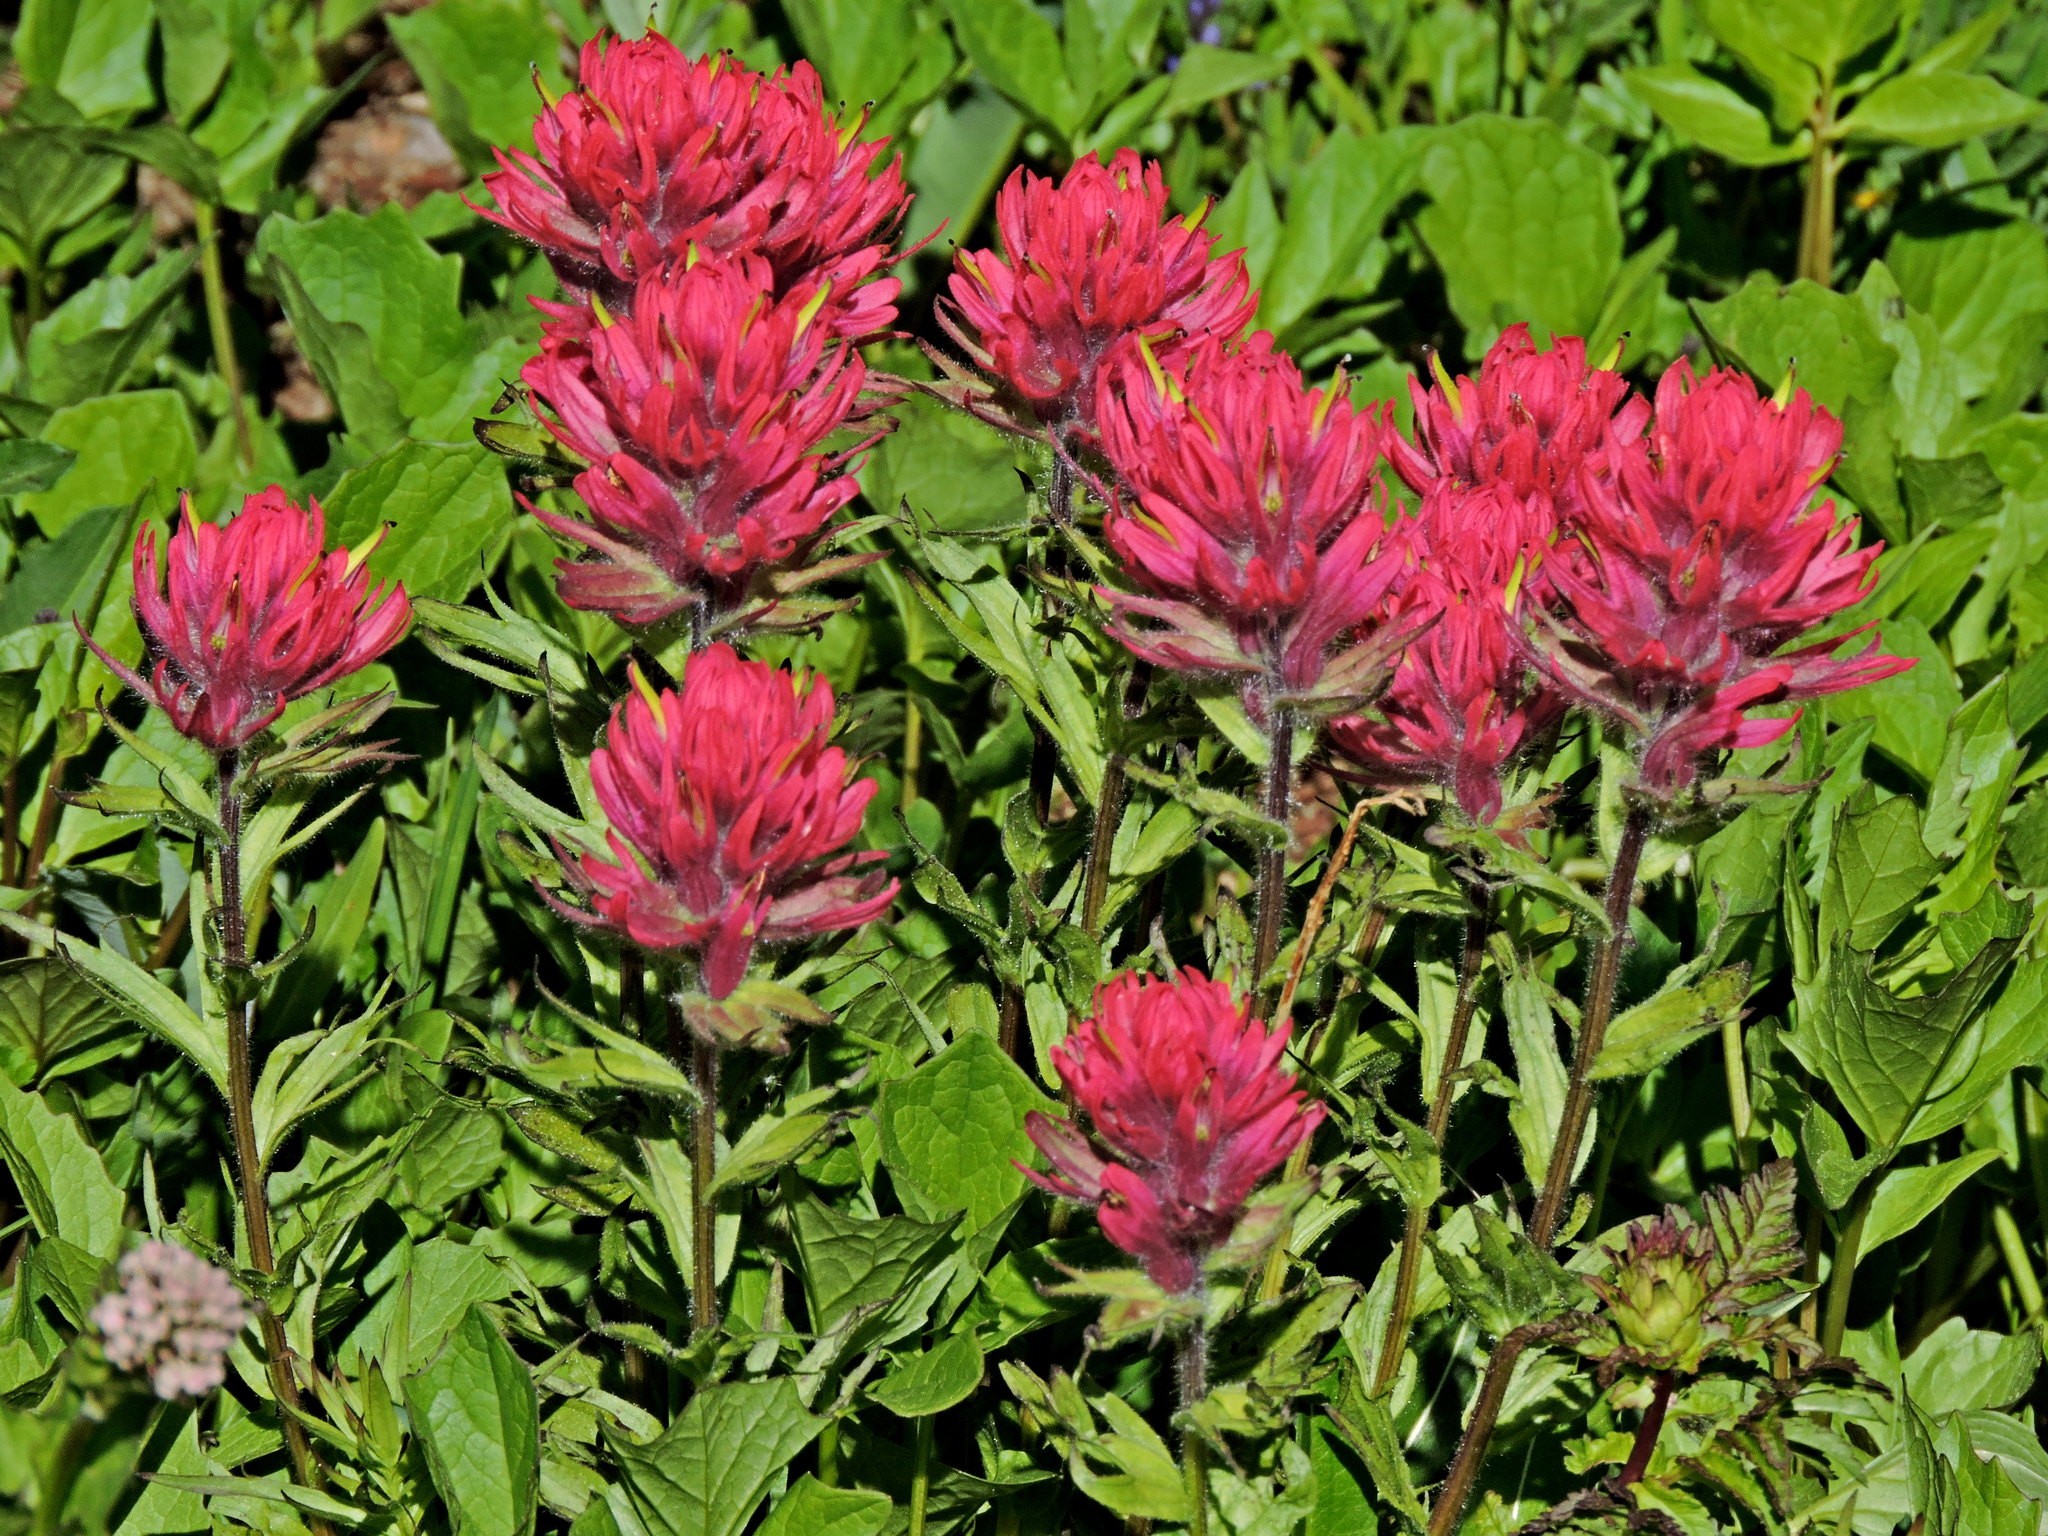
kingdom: Plantae
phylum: Tracheophyta
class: Magnoliopsida
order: Lamiales
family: Orobanchaceae
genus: Castilleja
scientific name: Castilleja parviflora
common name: Mountain paintbrush
